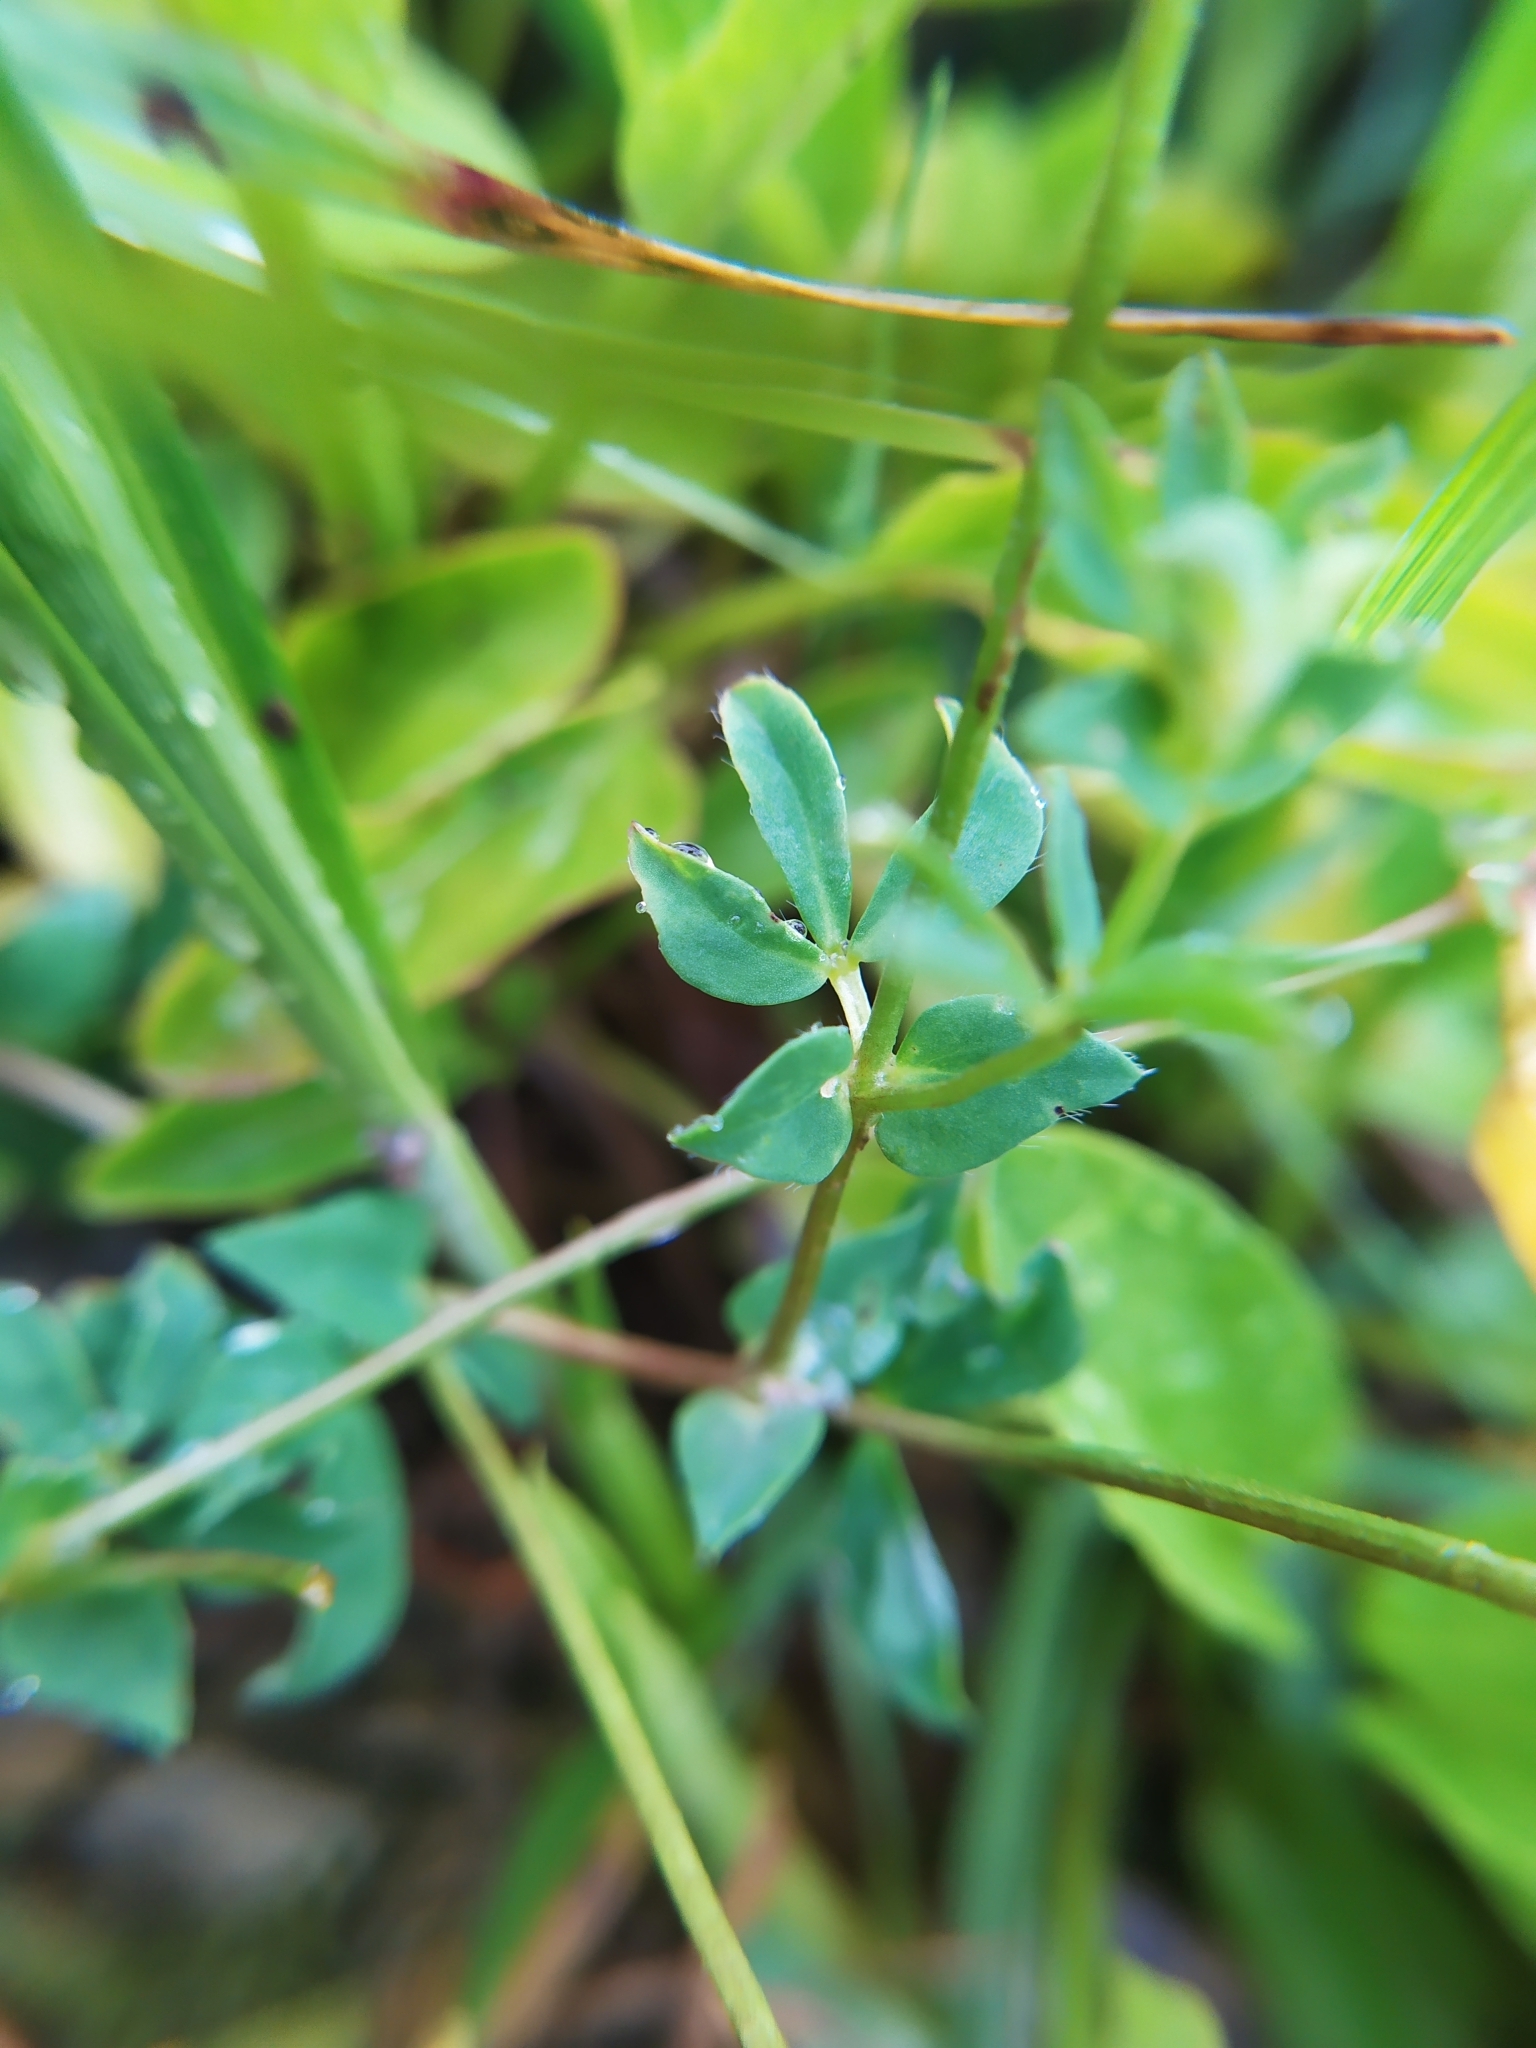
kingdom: Plantae
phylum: Tracheophyta
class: Magnoliopsida
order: Fabales
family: Fabaceae
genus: Lotus
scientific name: Lotus corniculatus
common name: Common bird's-foot-trefoil
